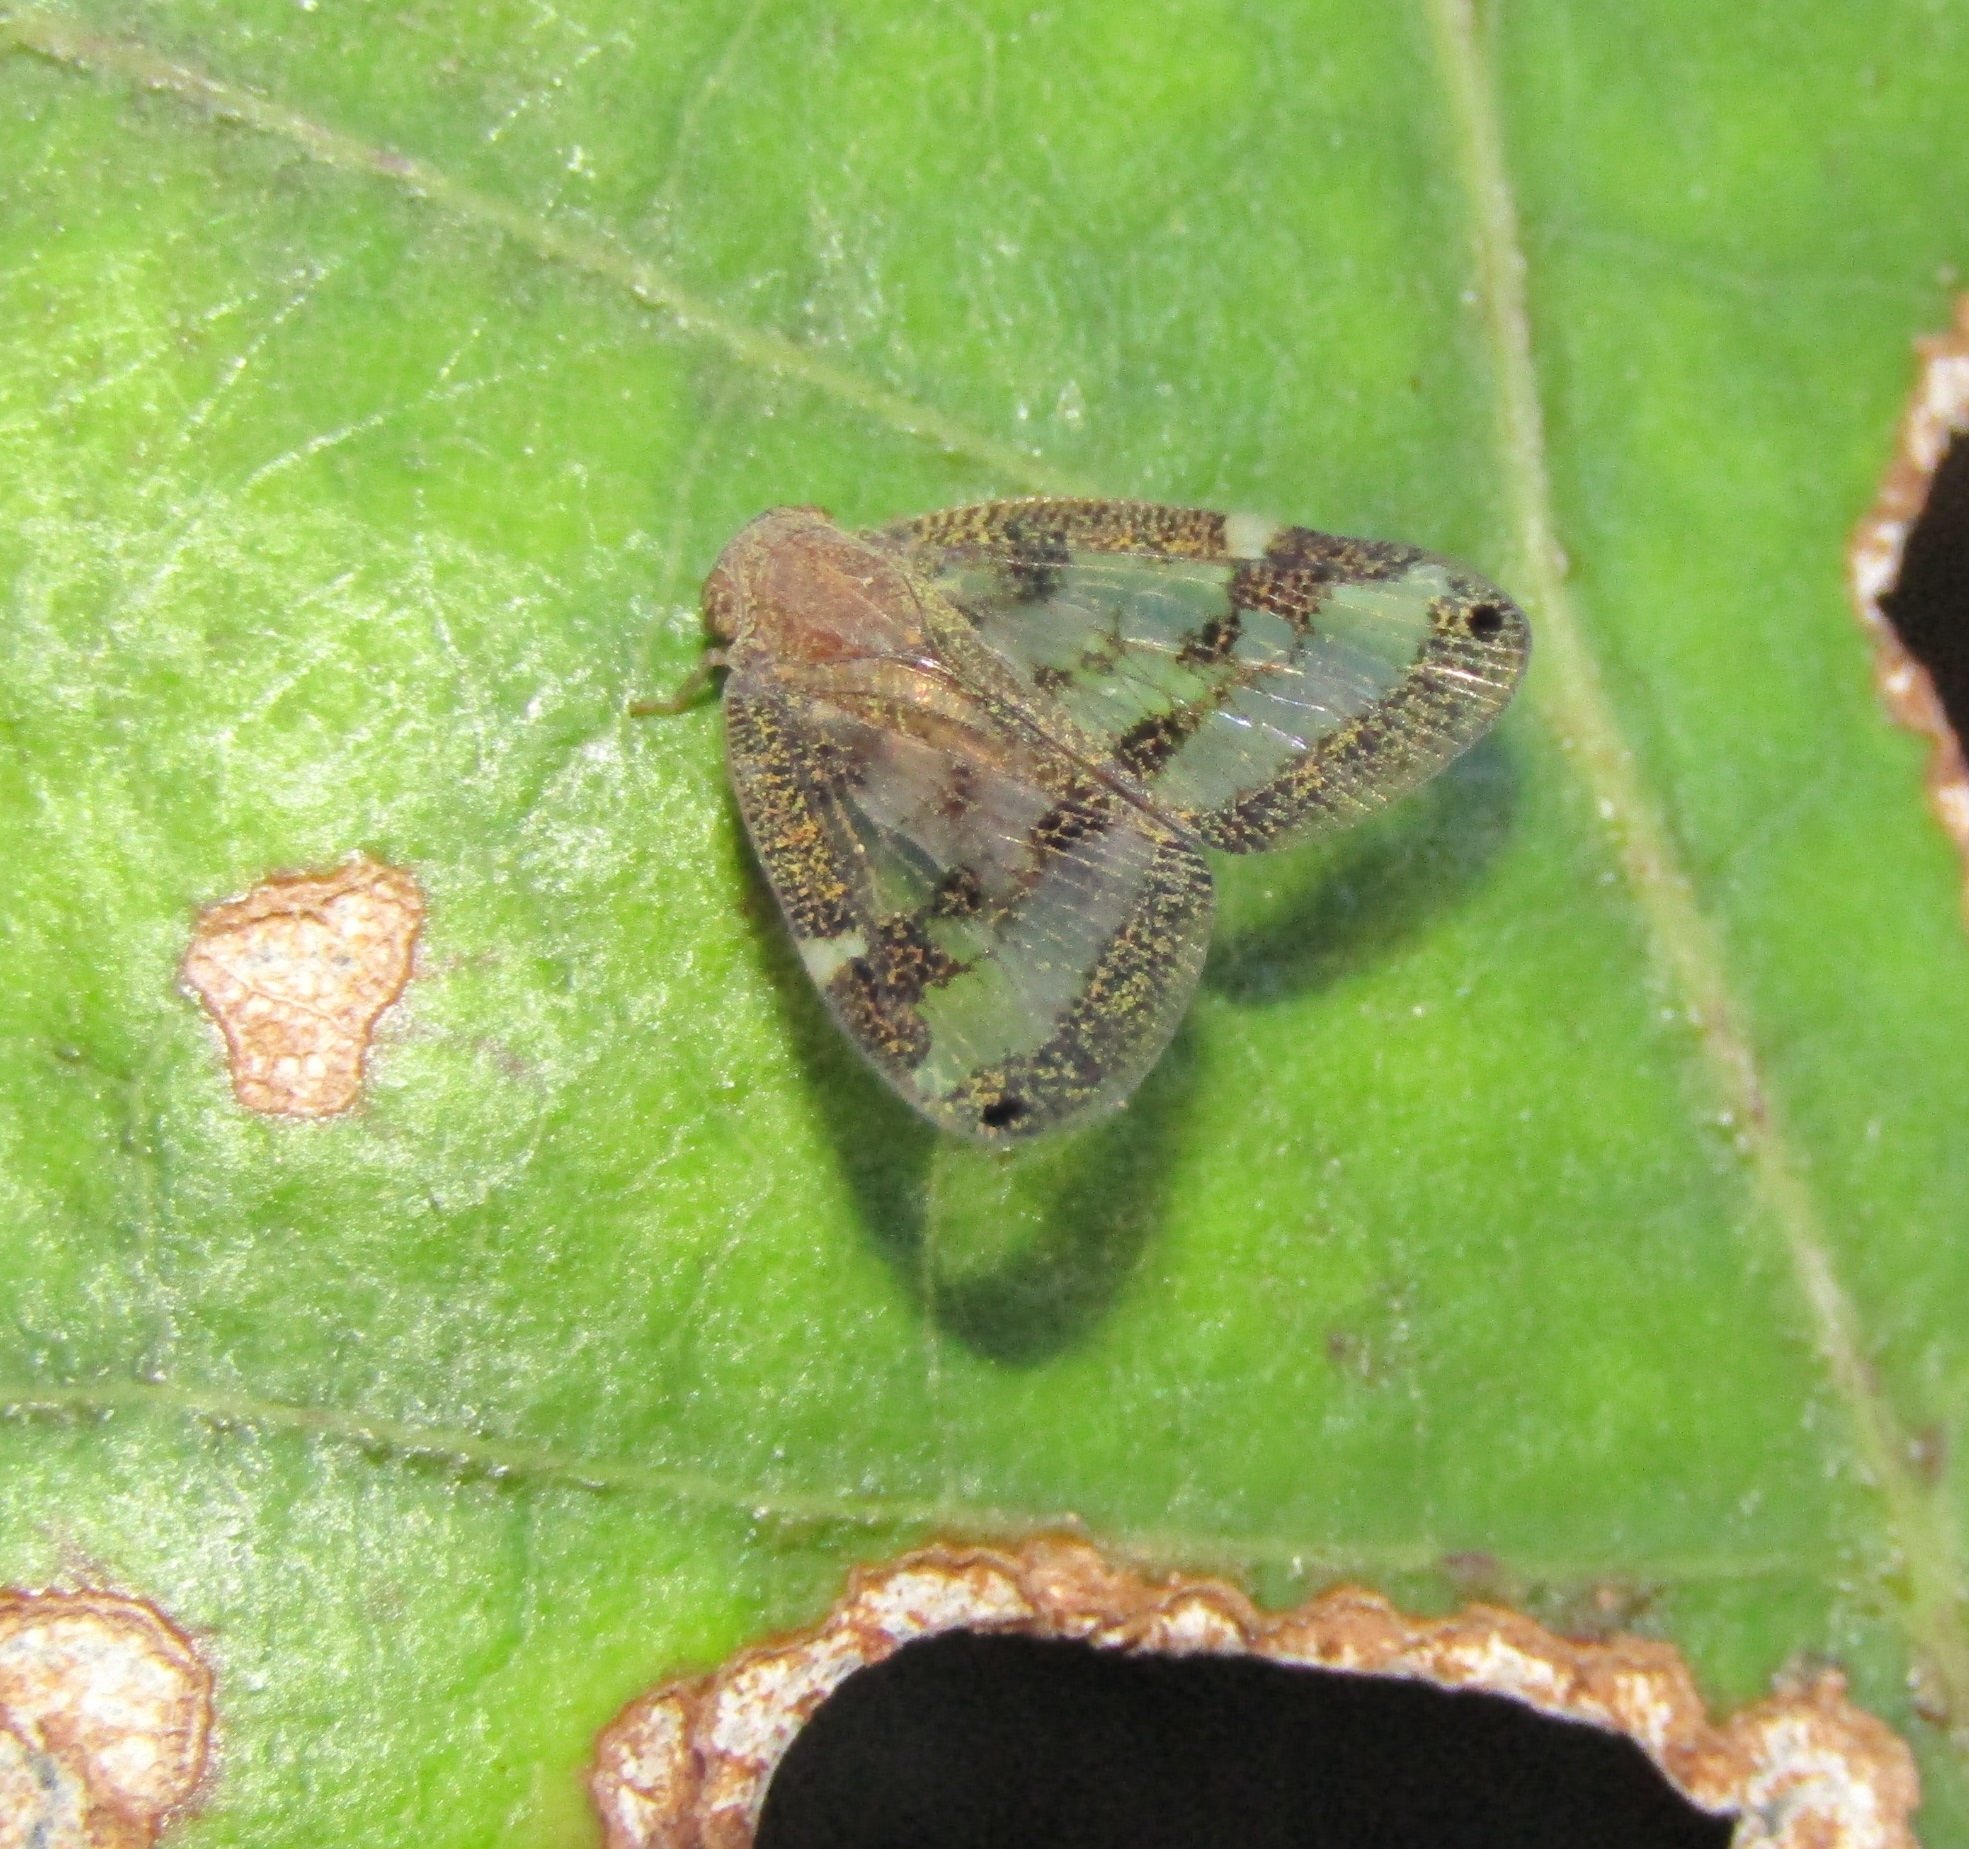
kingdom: Animalia
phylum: Arthropoda
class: Insecta
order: Hemiptera
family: Ricaniidae
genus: Scolypopa
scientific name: Scolypopa australis
